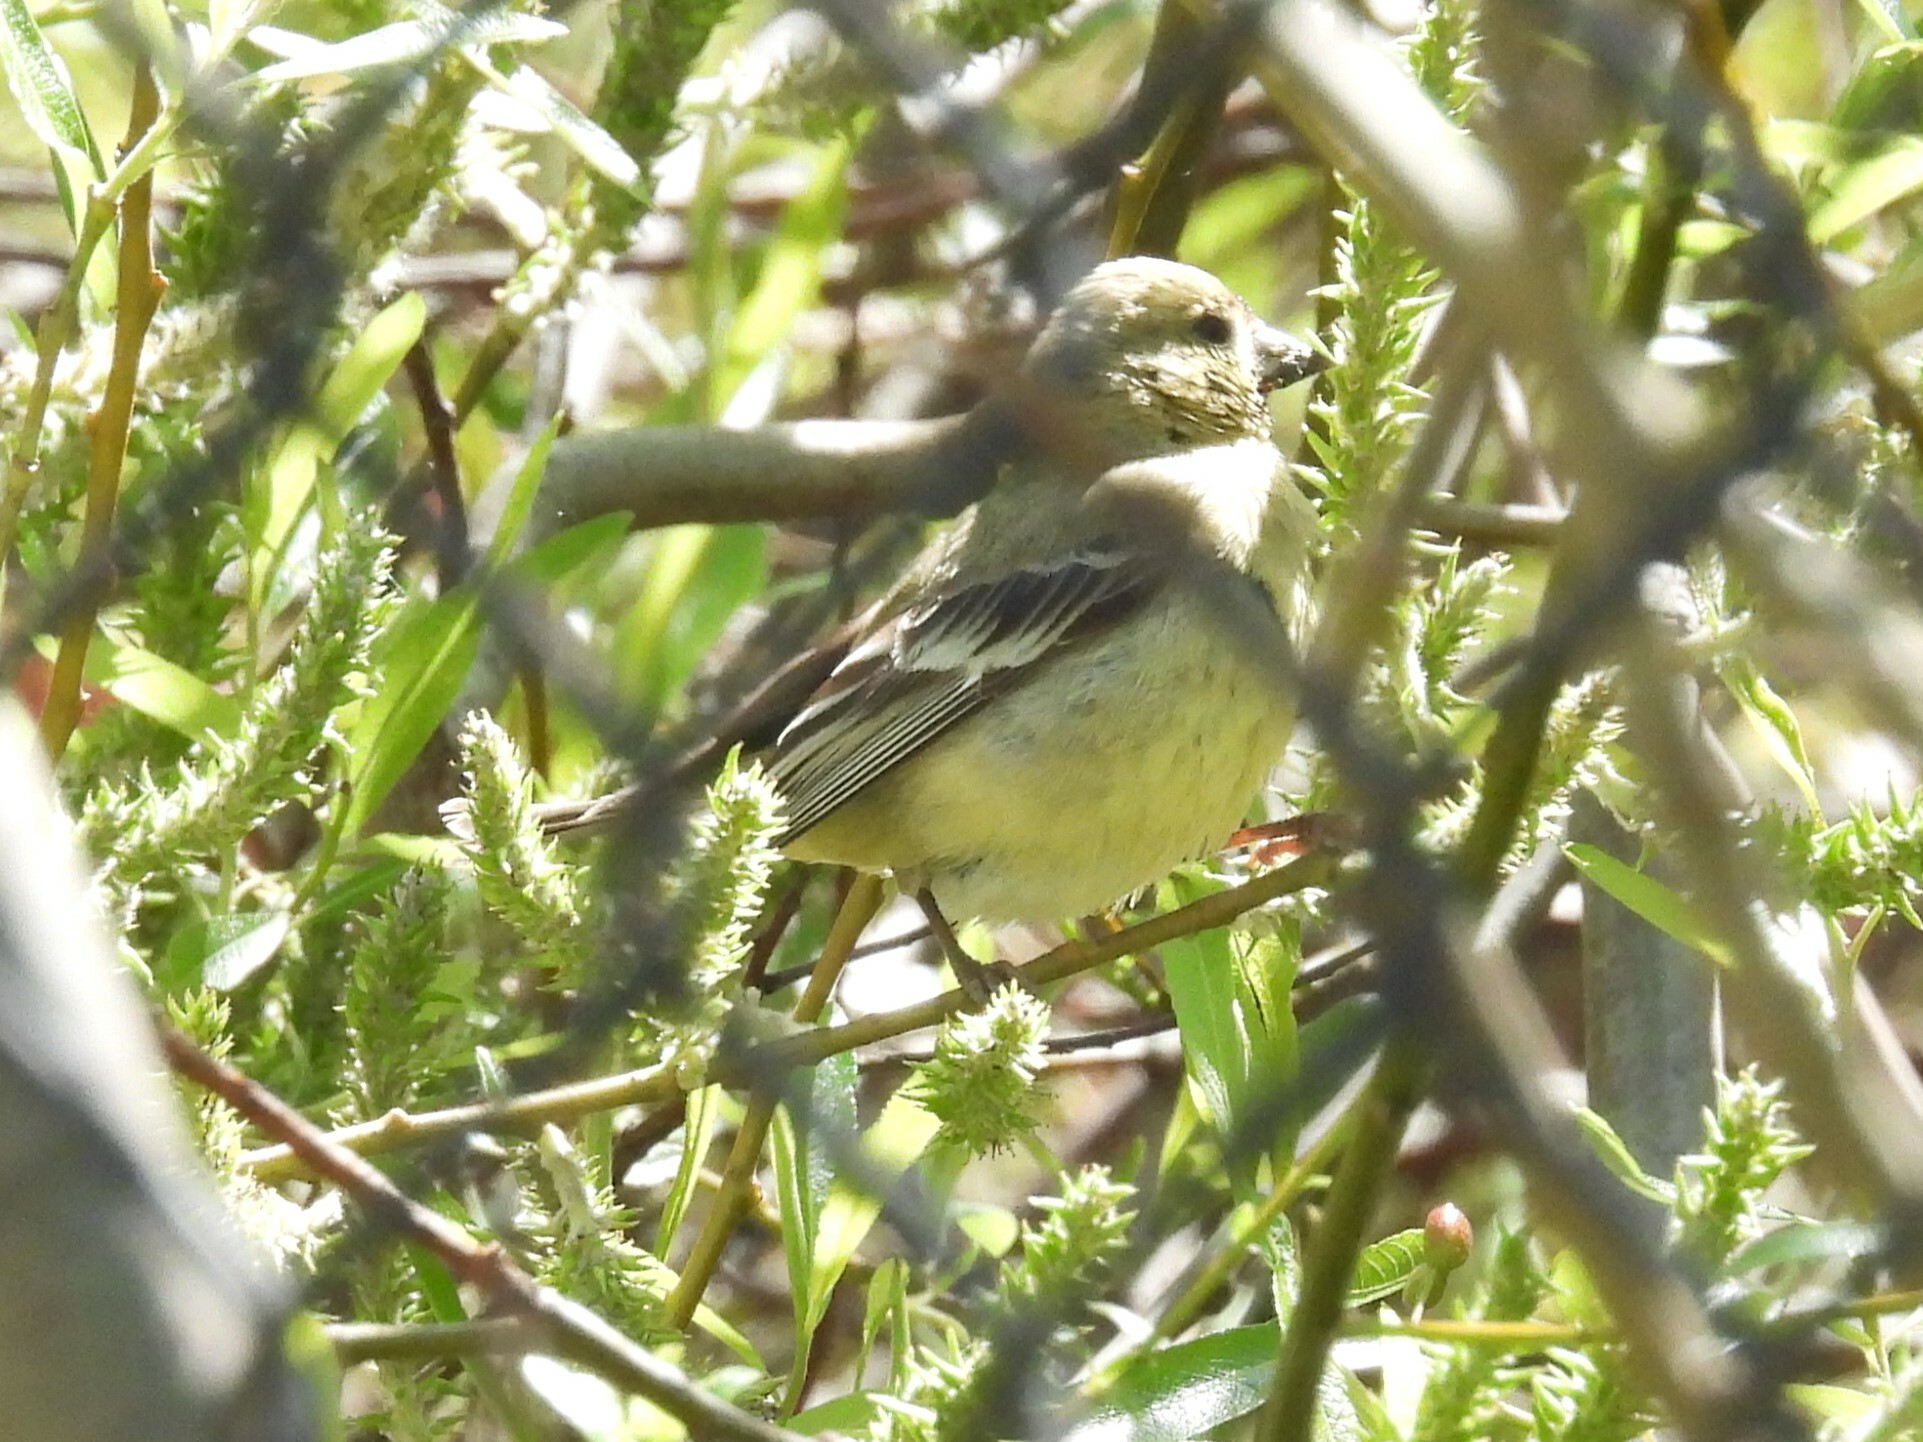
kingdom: Animalia
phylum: Chordata
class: Aves
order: Passeriformes
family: Fringillidae
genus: Spinus
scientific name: Spinus psaltria
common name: Lesser goldfinch
